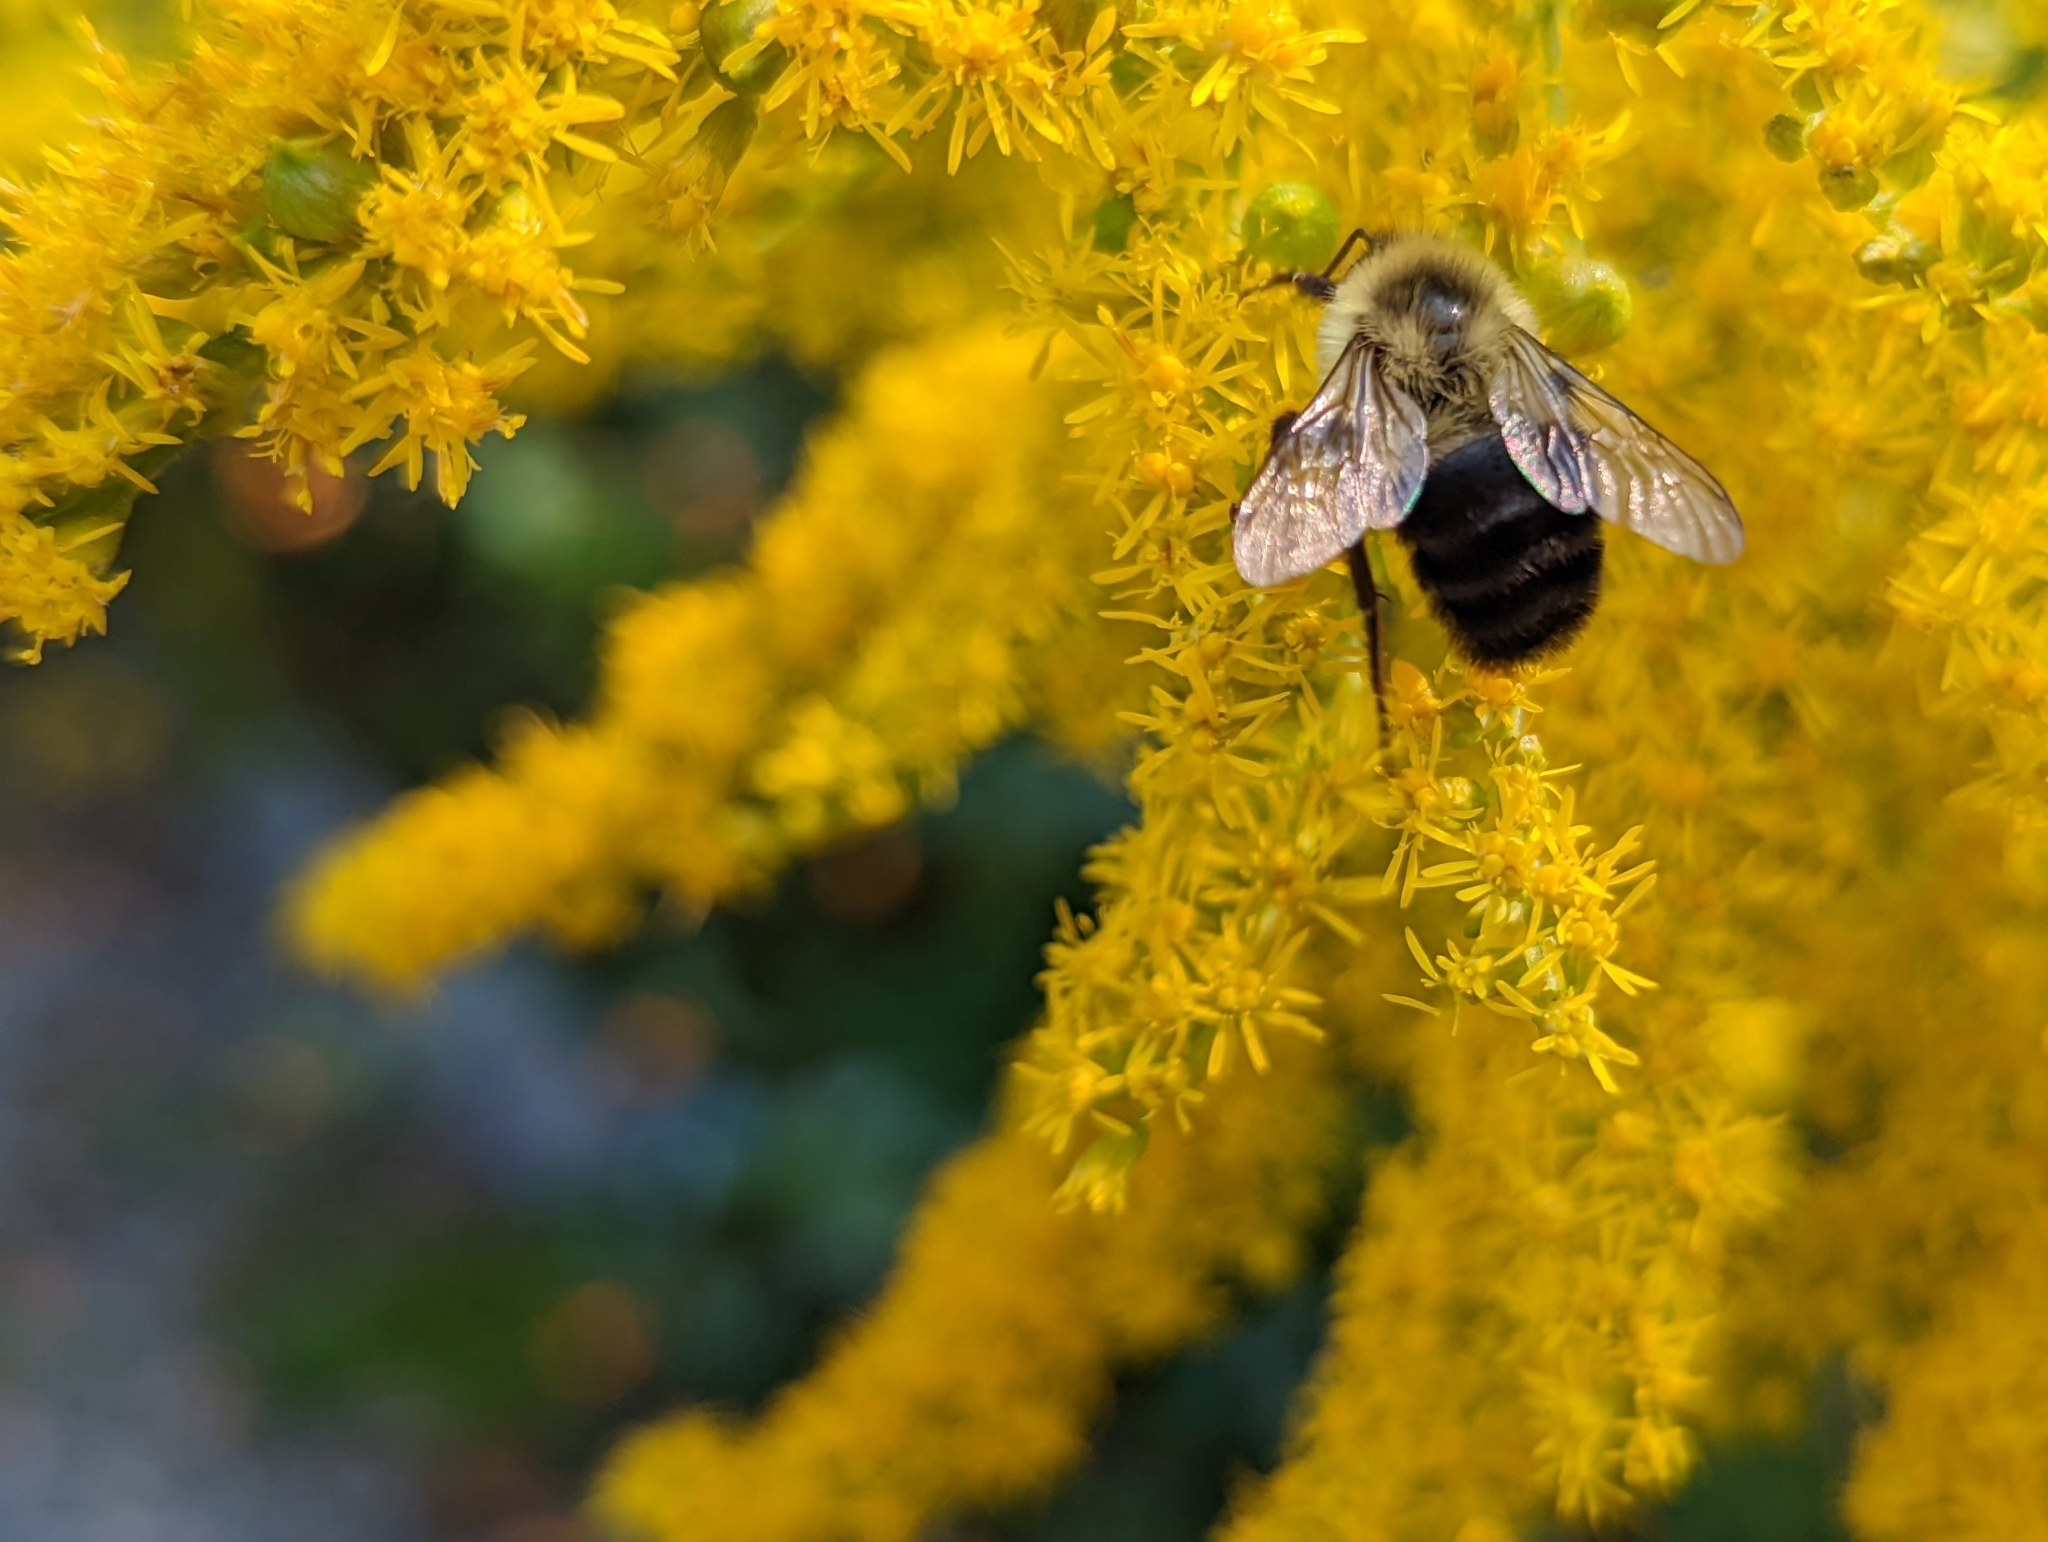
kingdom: Animalia
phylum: Arthropoda
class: Insecta
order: Hymenoptera
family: Apidae
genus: Bombus
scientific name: Bombus impatiens
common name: Common eastern bumble bee
